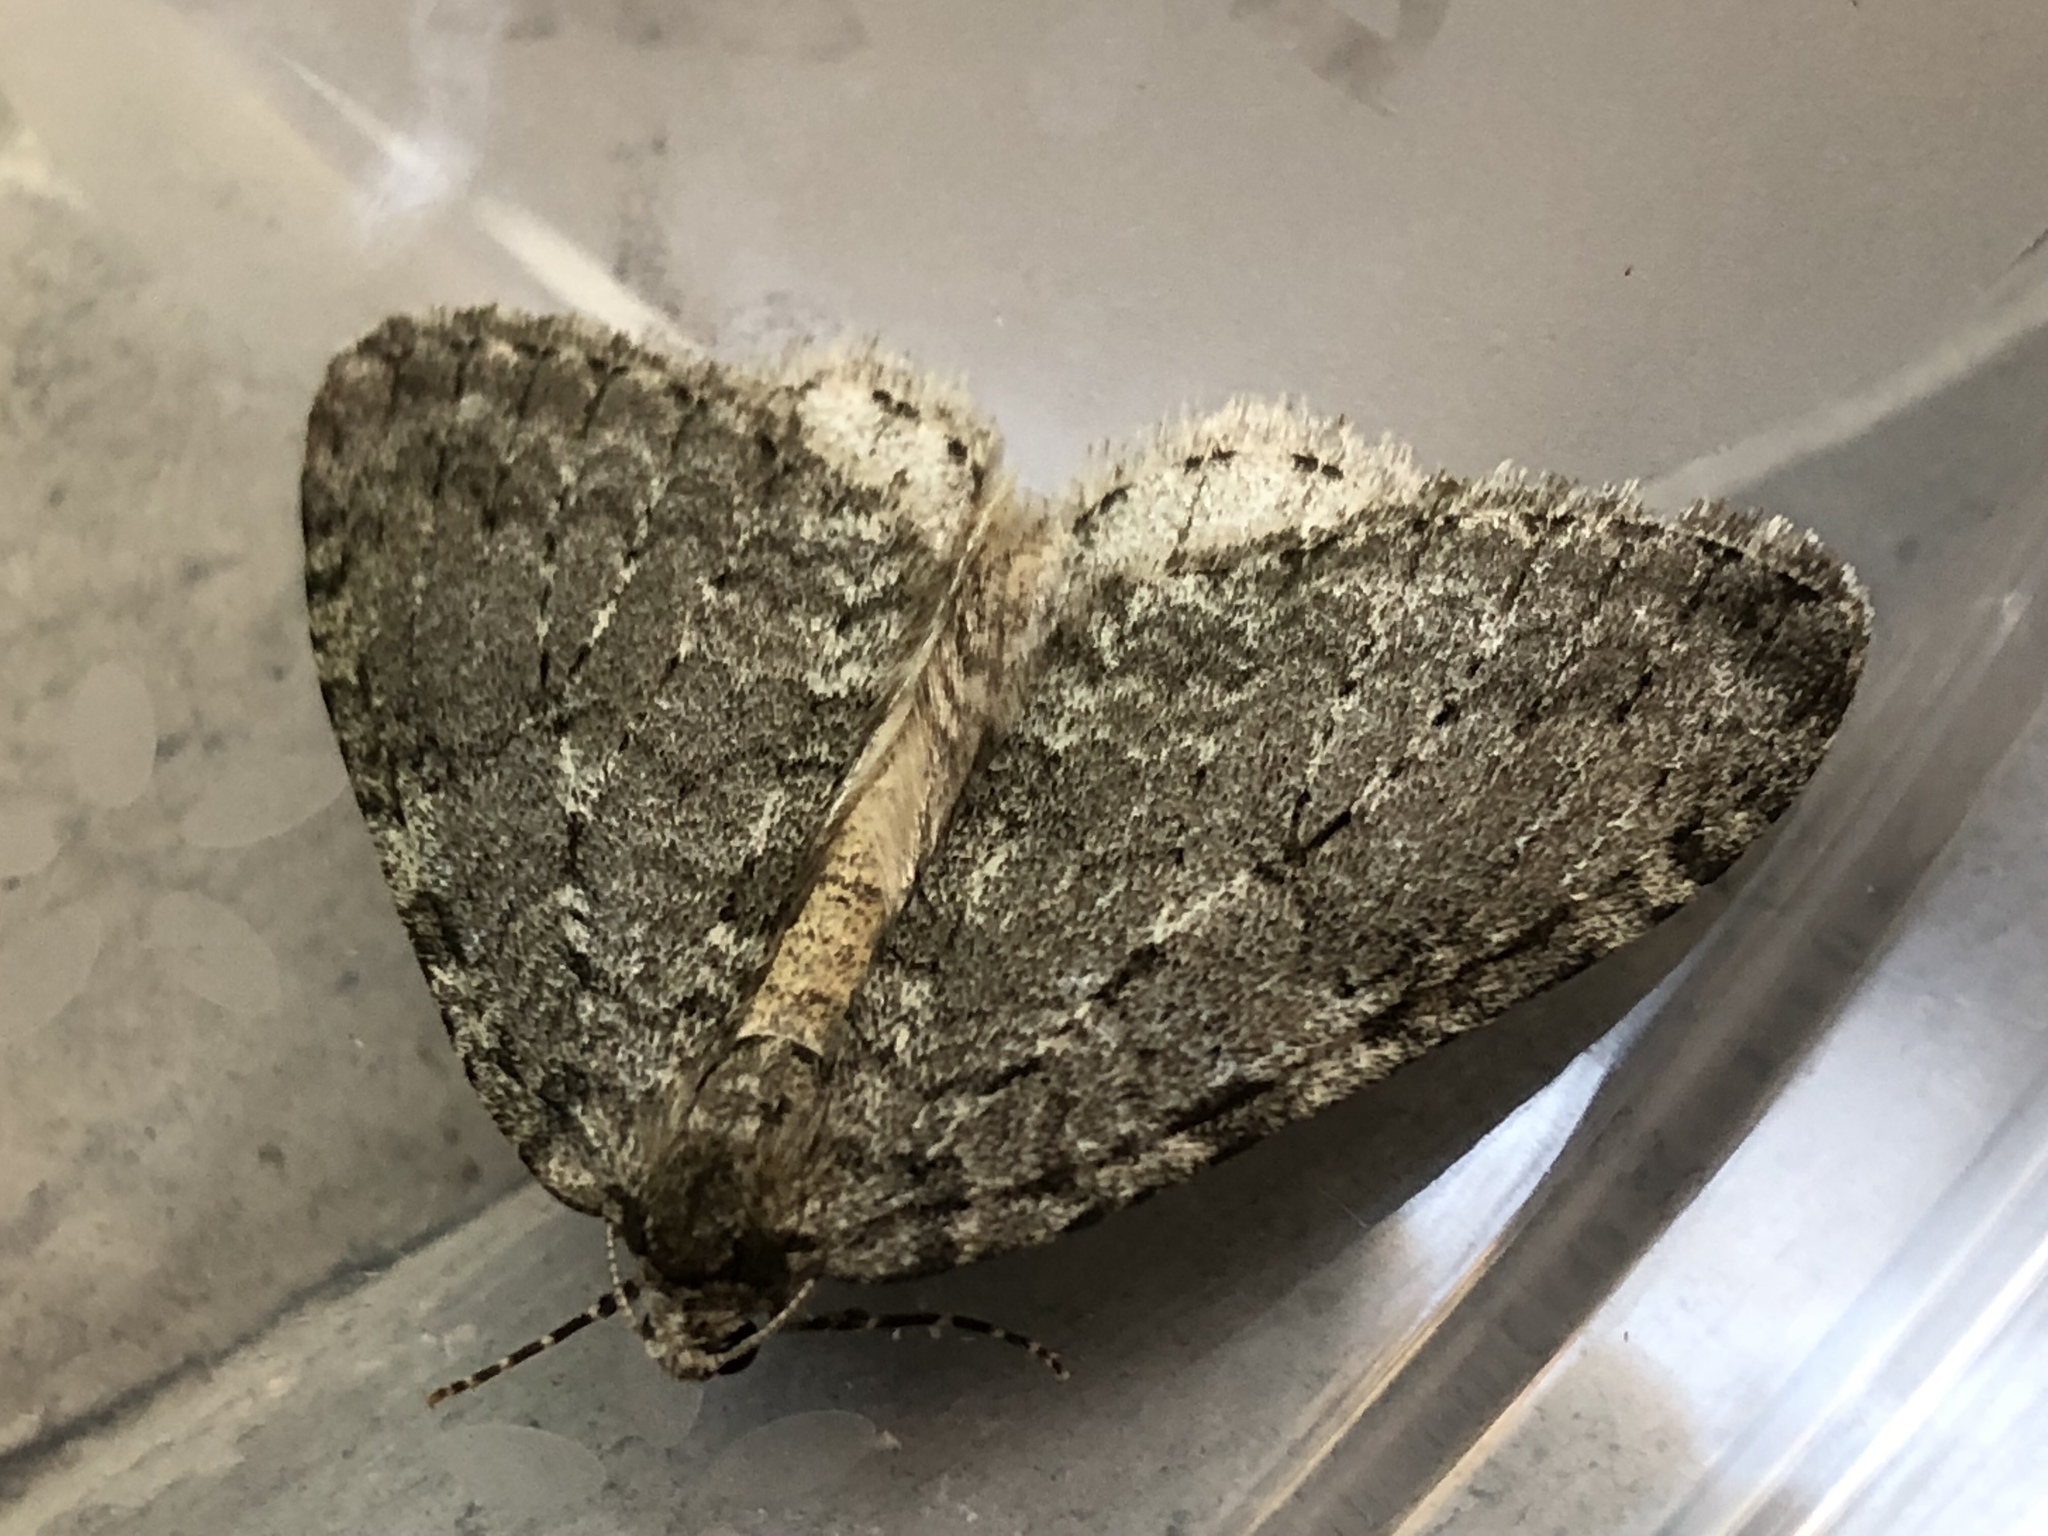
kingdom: Animalia
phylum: Arthropoda
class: Insecta
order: Lepidoptera
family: Geometridae
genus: Epirrita
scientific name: Epirrita dilutata
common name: November moth
